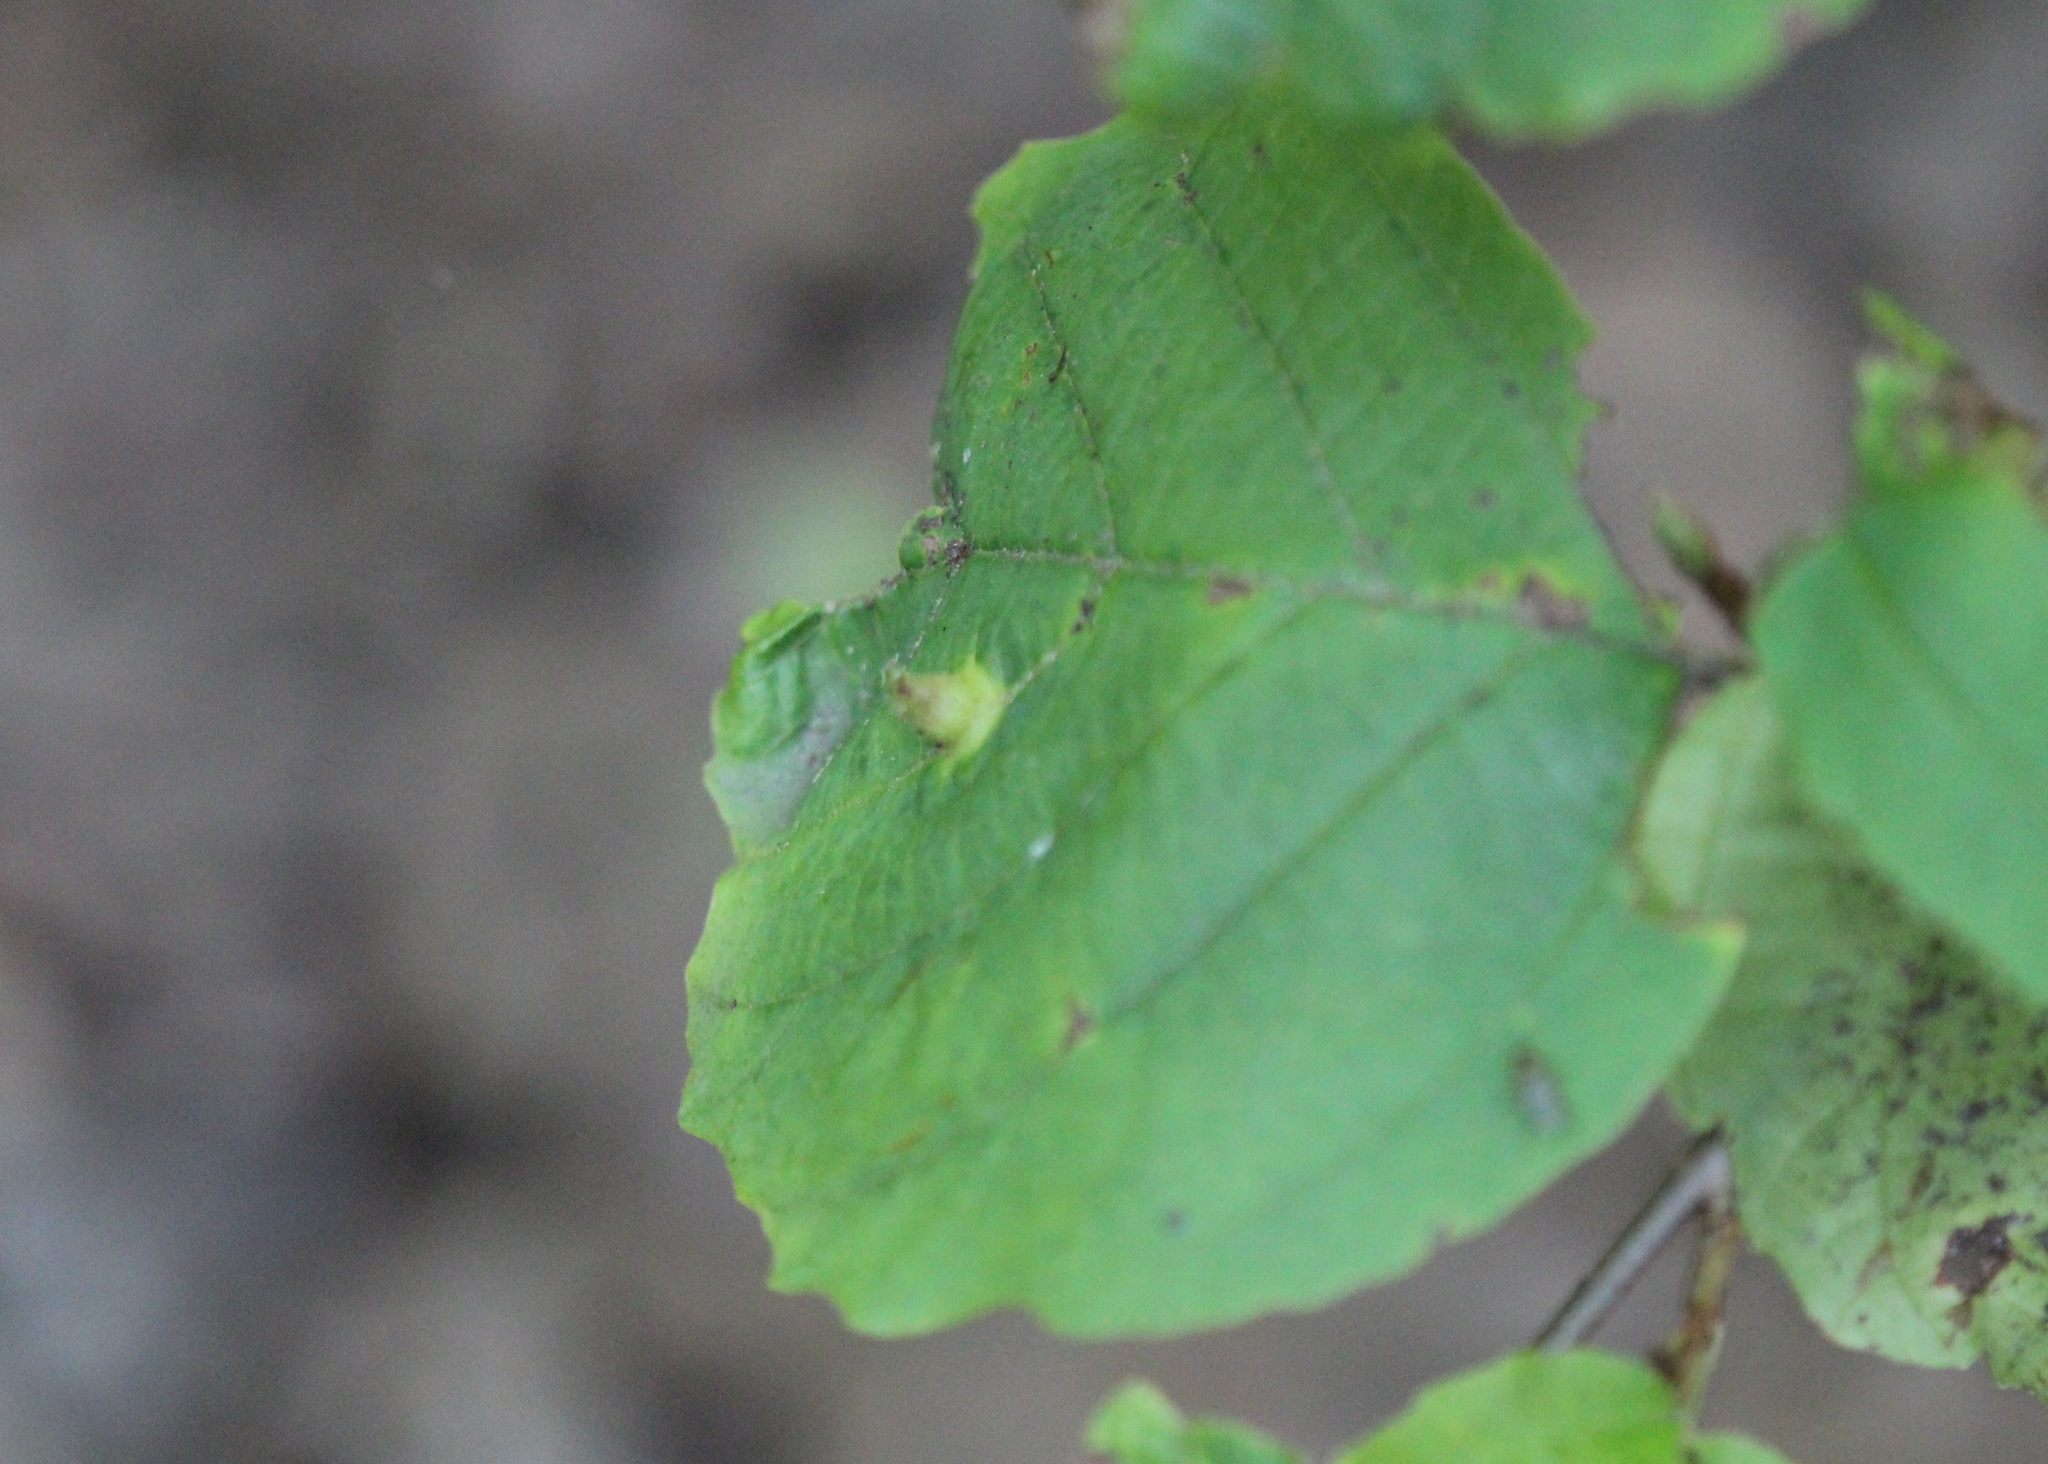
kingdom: Plantae
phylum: Tracheophyta
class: Magnoliopsida
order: Saxifragales
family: Hamamelidaceae
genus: Hamamelis
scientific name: Hamamelis virginiana
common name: Witch-hazel
